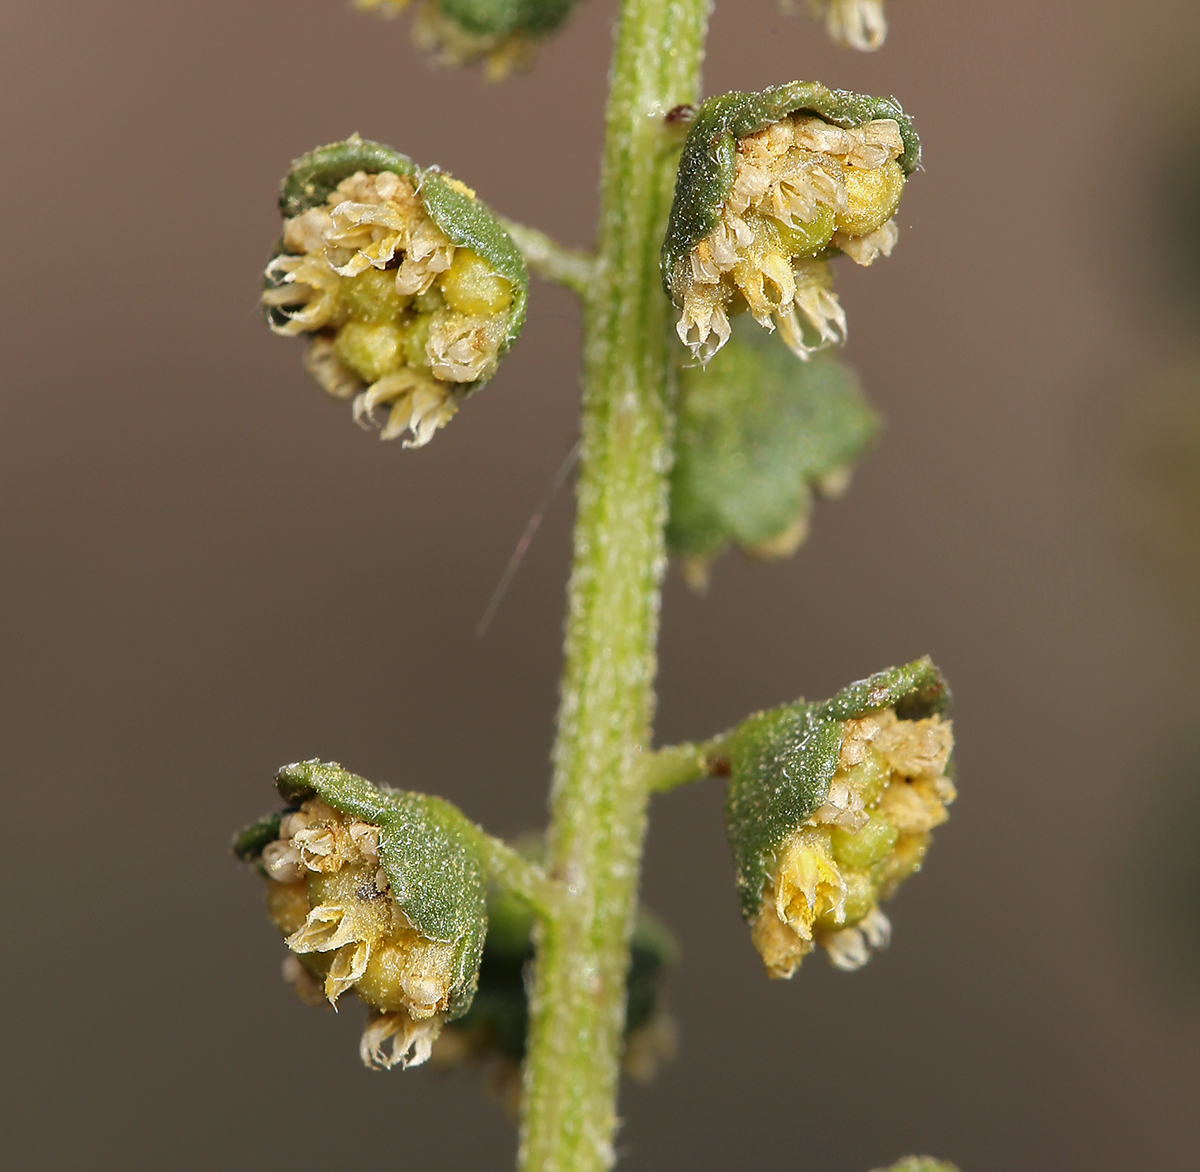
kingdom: Plantae
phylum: Tracheophyta
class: Magnoliopsida
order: Asterales
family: Asteraceae
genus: Ambrosia
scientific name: Ambrosia acanthicarpa
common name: Hooker's bur ragweed
